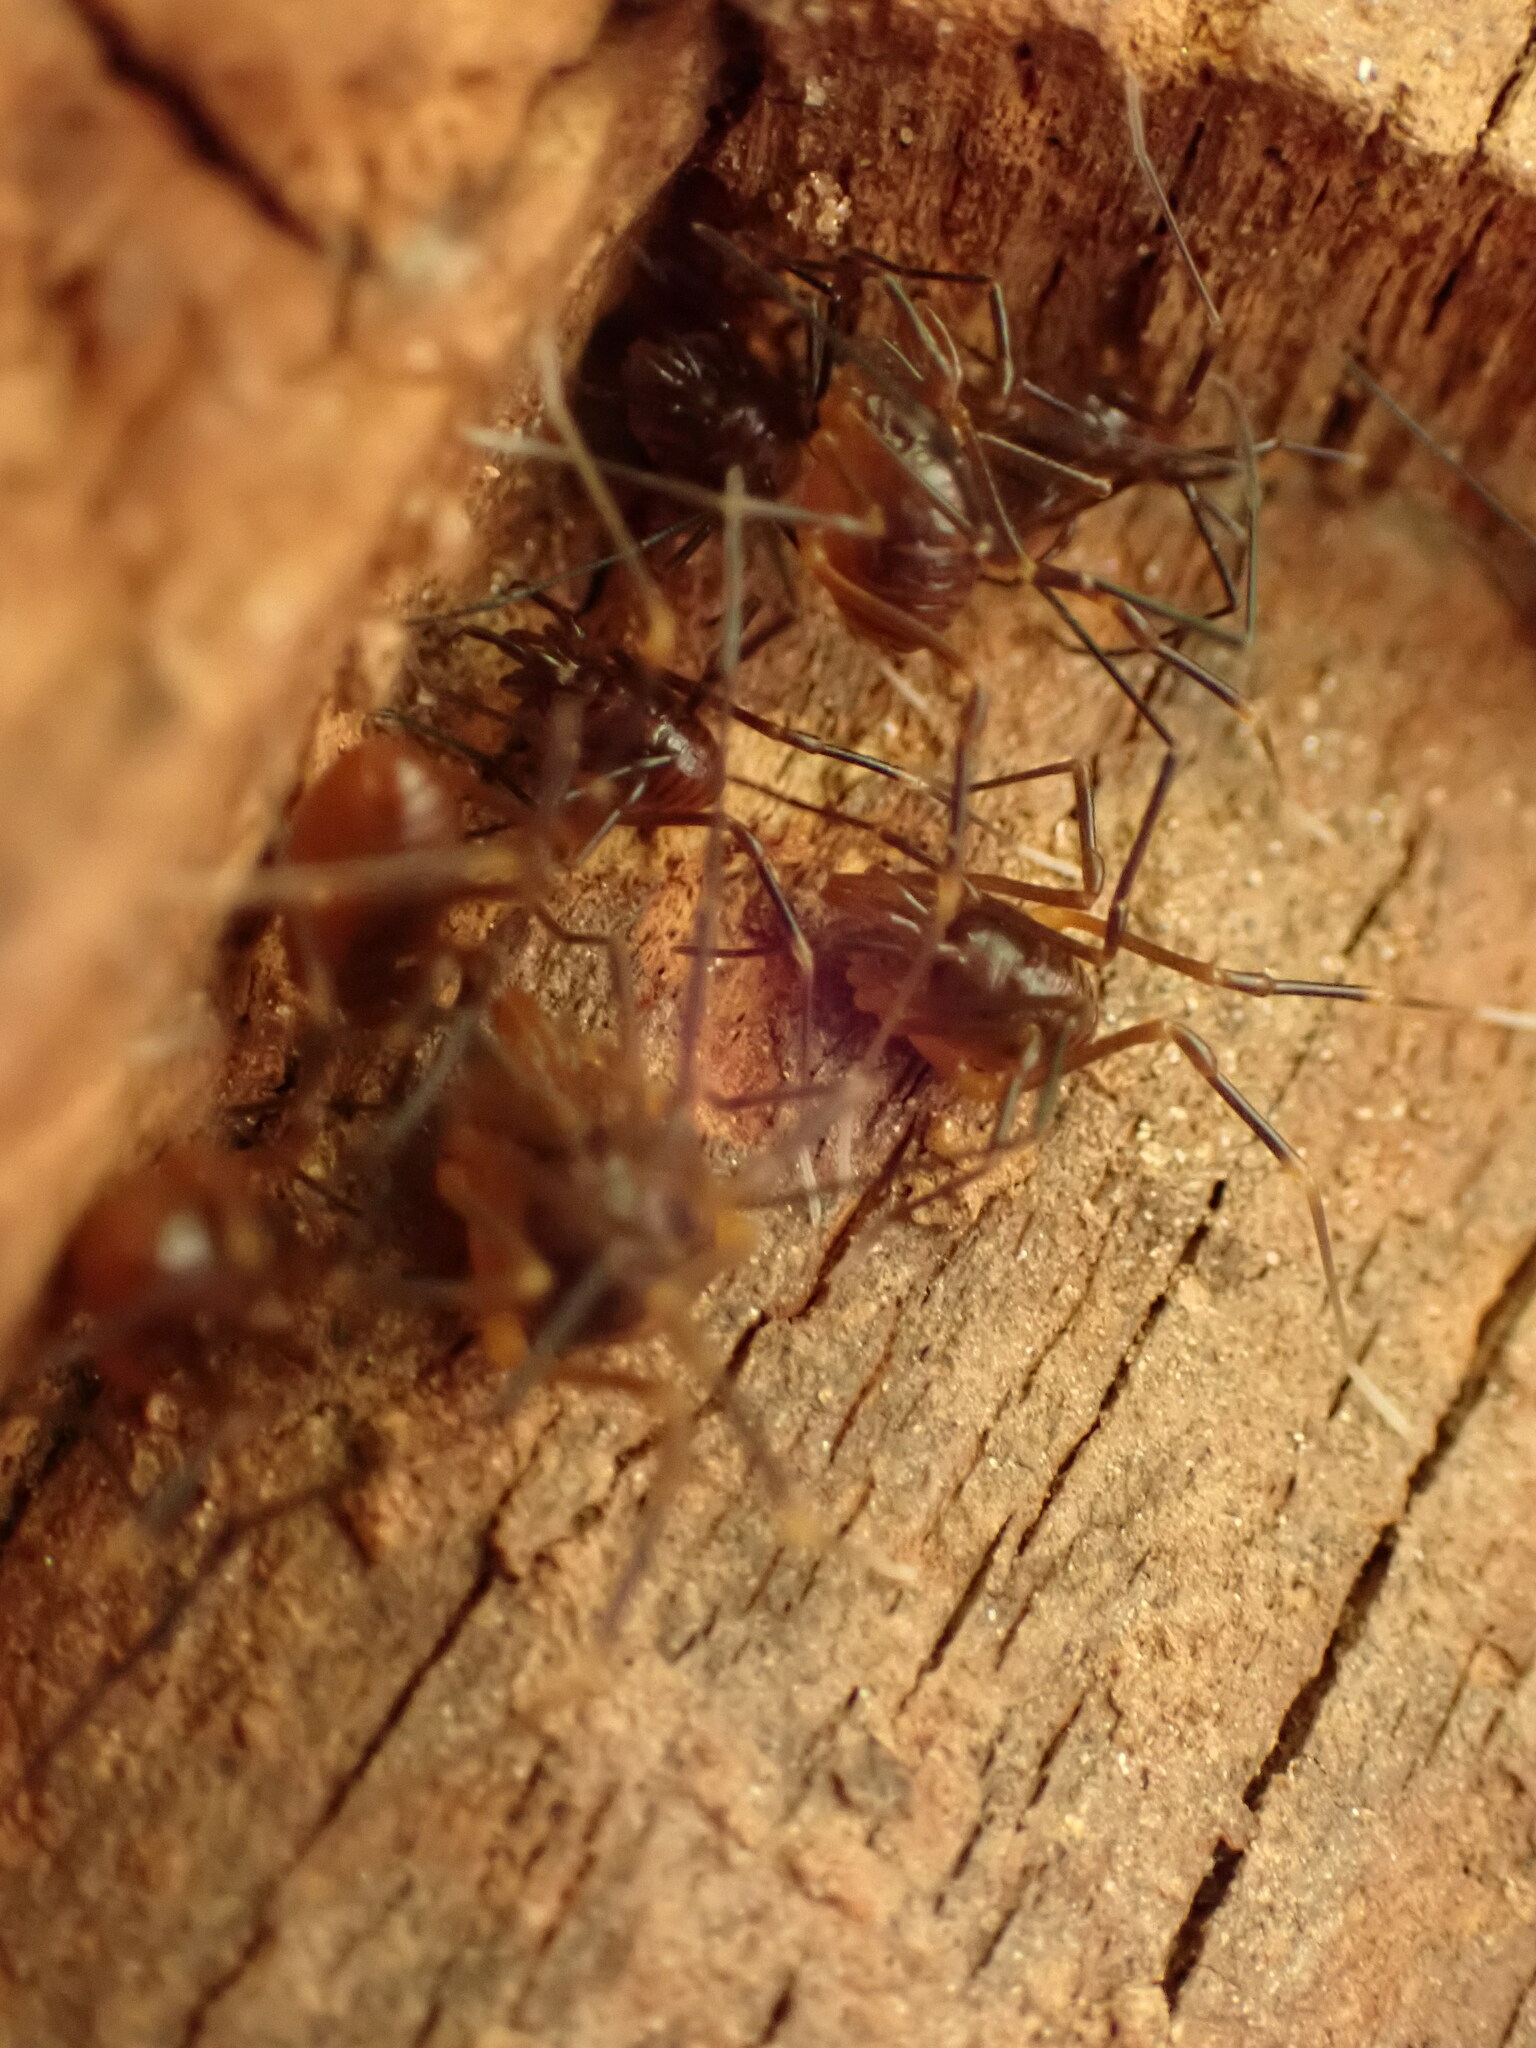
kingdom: Animalia
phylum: Arthropoda
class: Arachnida
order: Opiliones
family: Cosmetidae
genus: Libitioides
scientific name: Libitioides sayi
